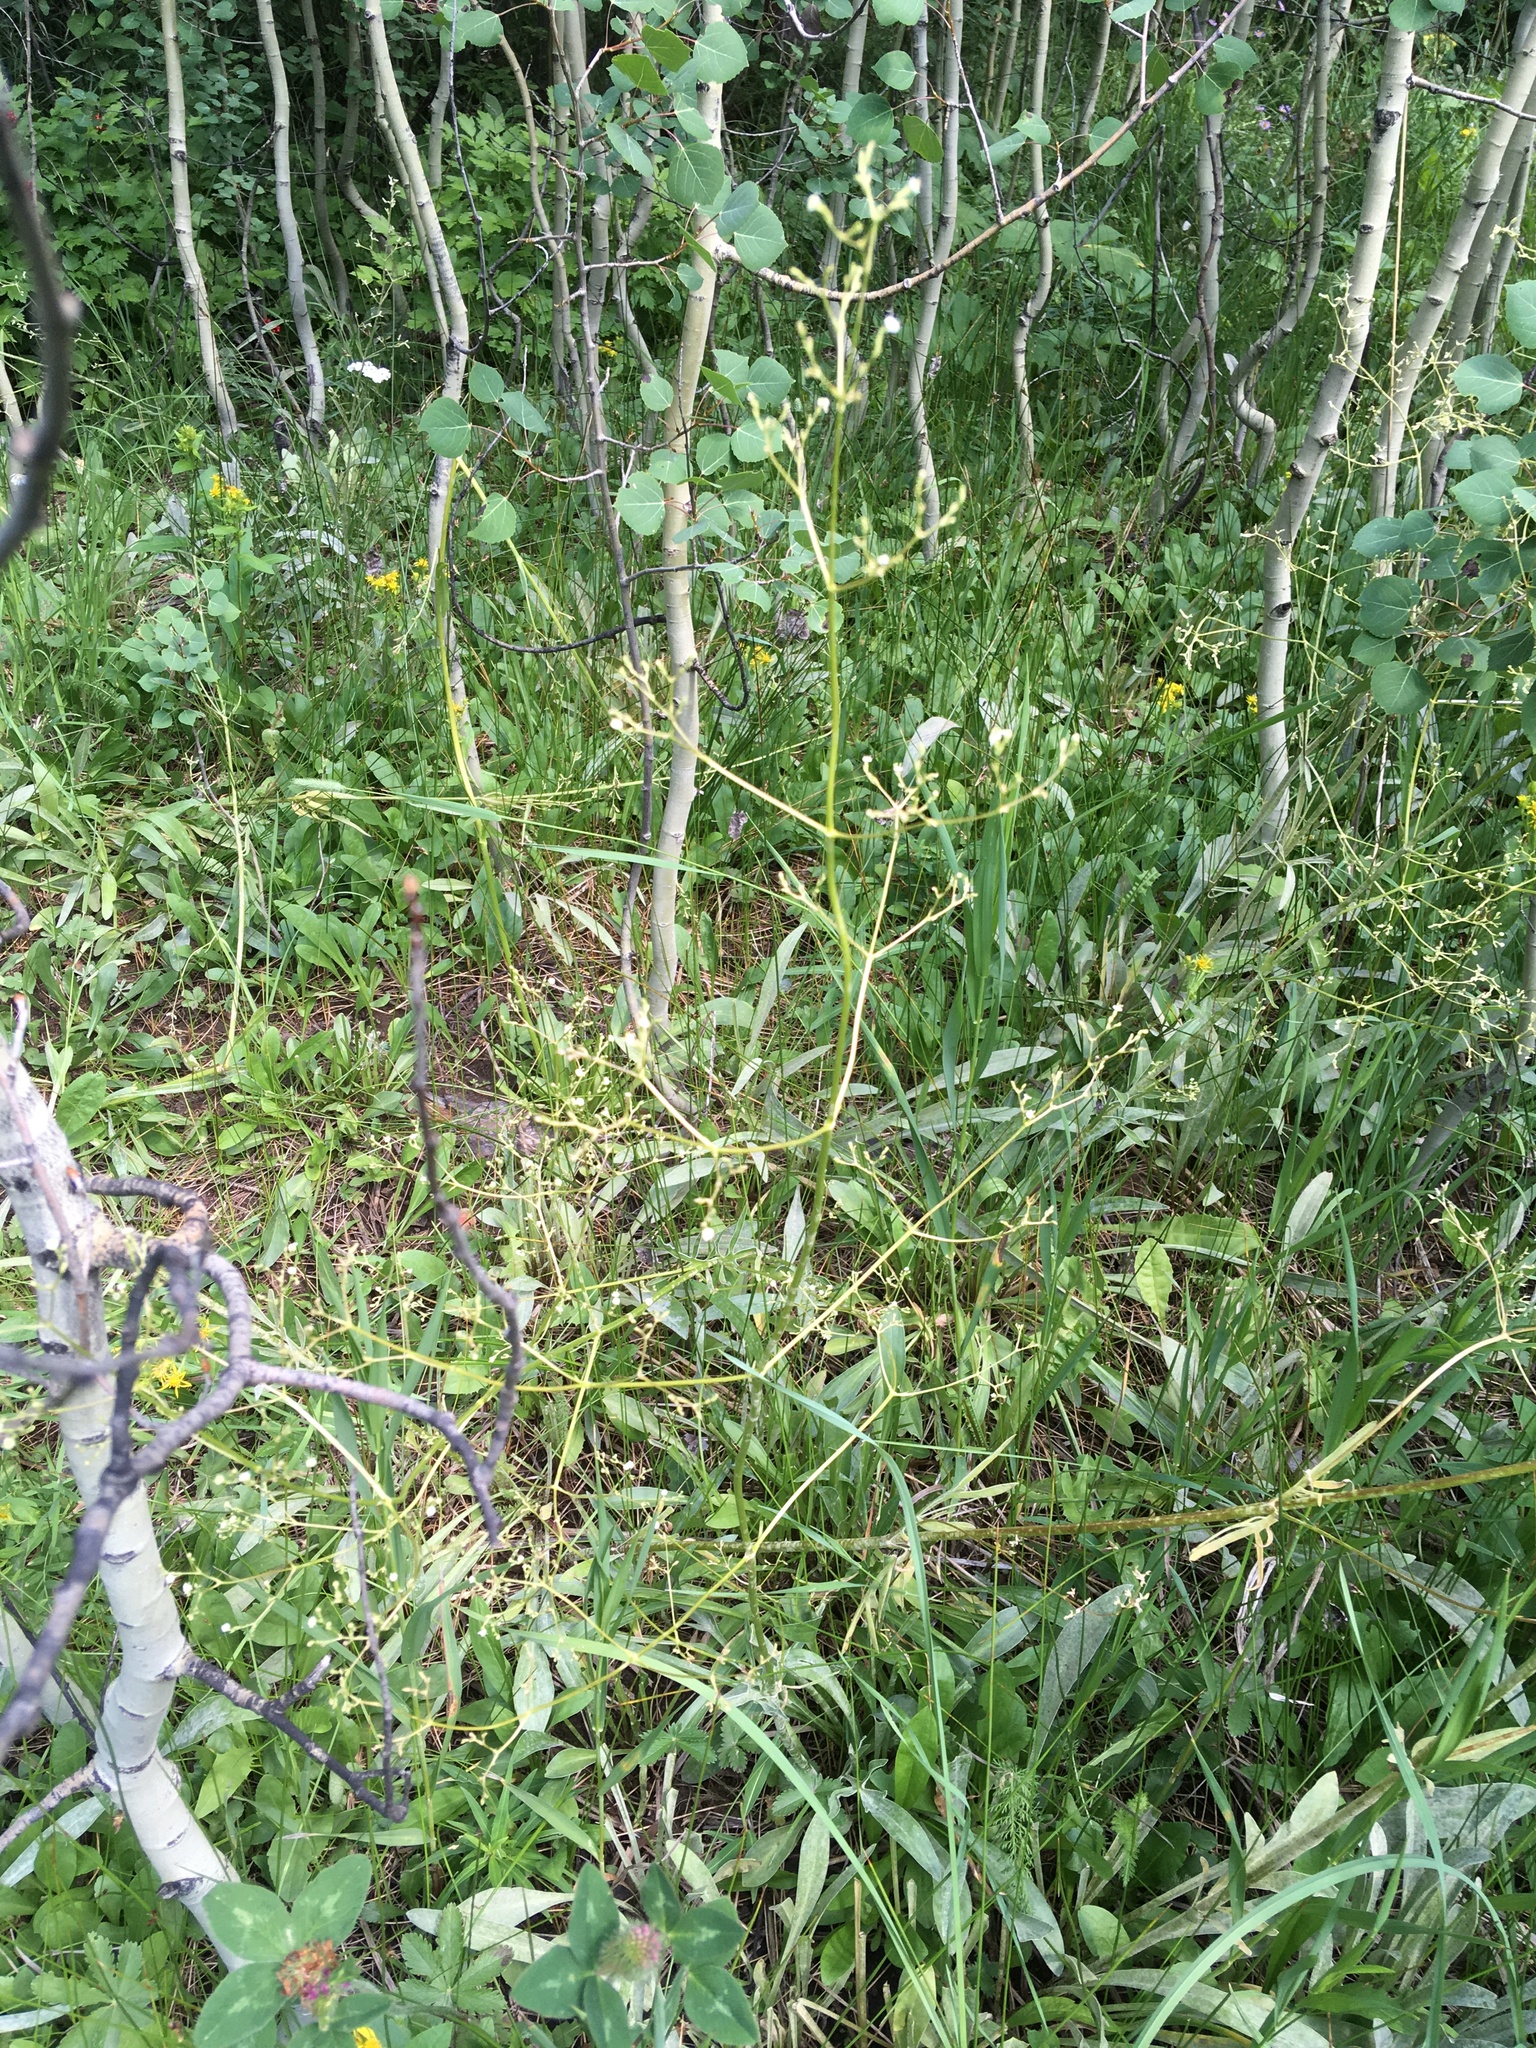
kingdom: Plantae
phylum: Tracheophyta
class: Magnoliopsida
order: Dipsacales
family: Caprifoliaceae
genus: Valeriana
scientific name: Valeriana edulis
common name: Taproot valerian
